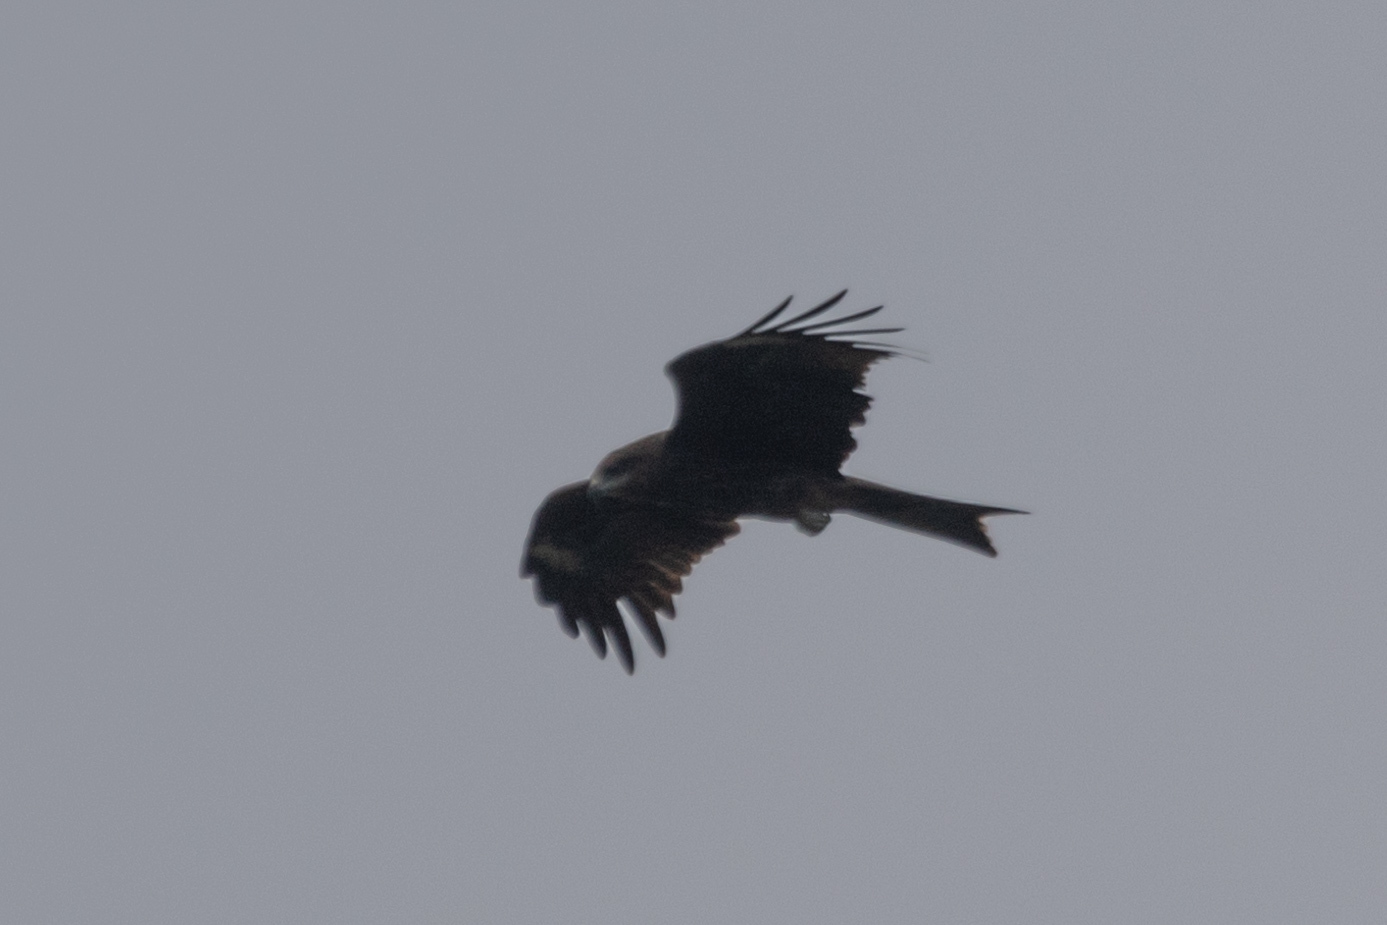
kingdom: Animalia
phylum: Chordata
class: Aves
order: Accipitriformes
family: Accipitridae
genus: Milvus
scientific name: Milvus migrans
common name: Black kite
